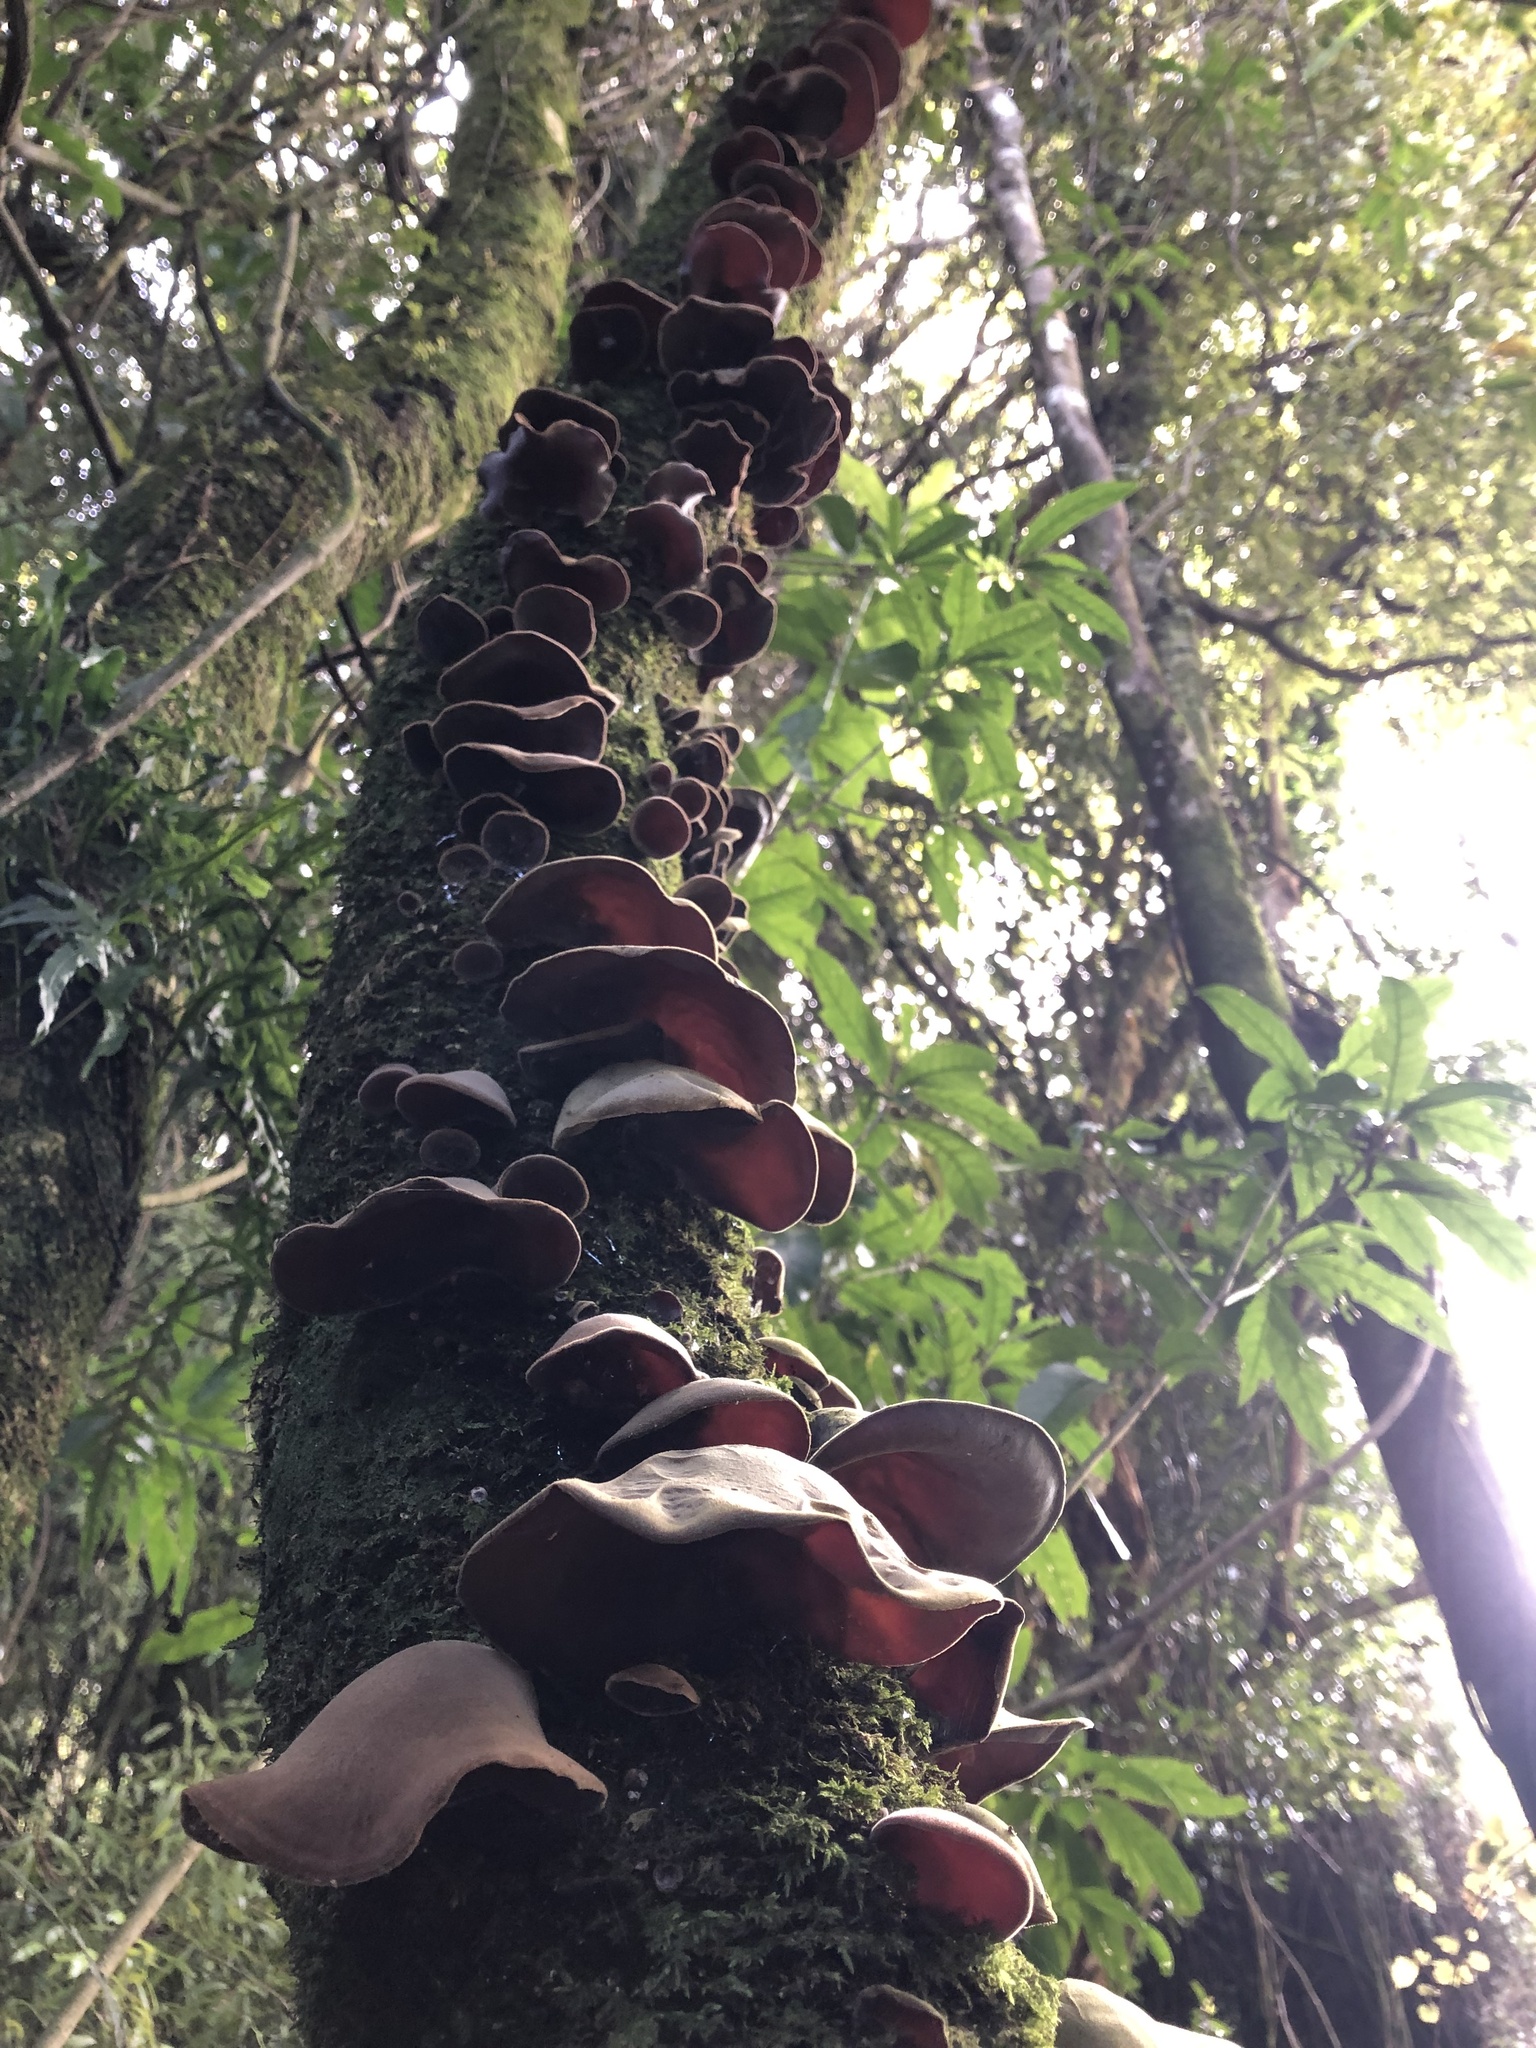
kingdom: Fungi
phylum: Basidiomycota
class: Agaricomycetes
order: Auriculariales
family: Auriculariaceae
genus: Auricularia
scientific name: Auricularia cornea
